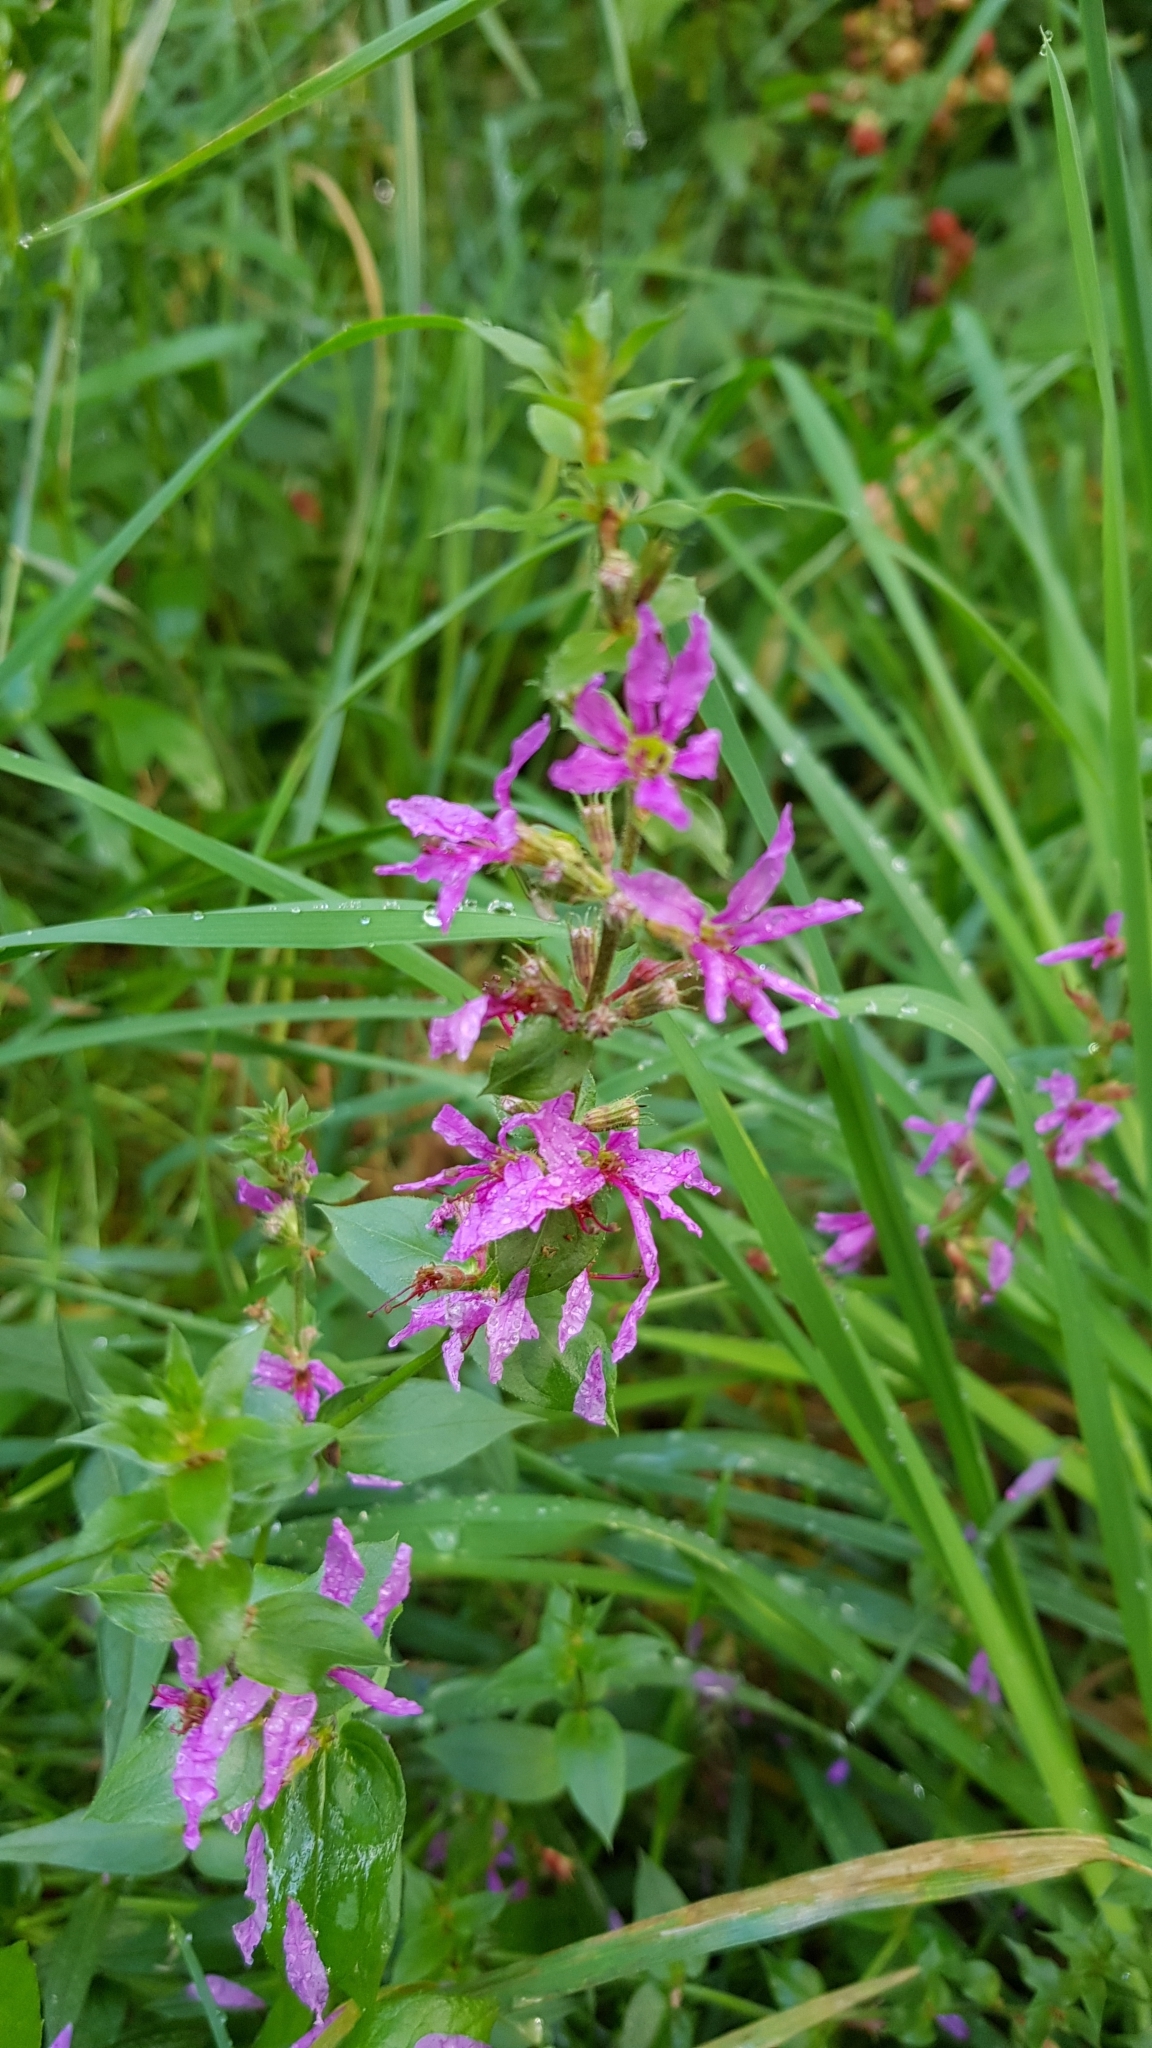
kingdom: Plantae
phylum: Tracheophyta
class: Magnoliopsida
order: Myrtales
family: Lythraceae
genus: Lythrum
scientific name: Lythrum salicaria
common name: Purple loosestrife
